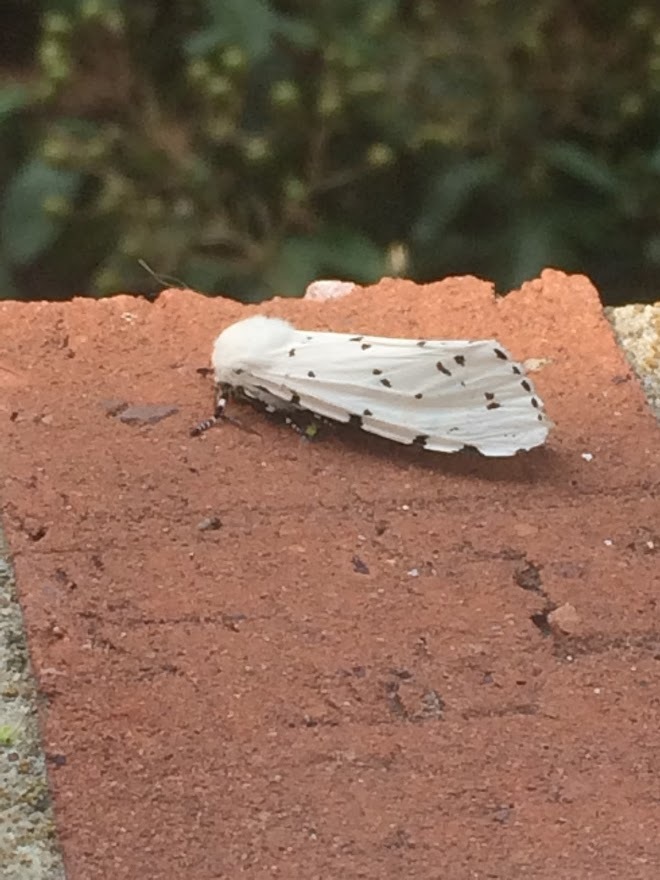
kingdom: Animalia
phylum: Arthropoda
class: Insecta
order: Lepidoptera
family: Erebidae
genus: Estigmene
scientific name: Estigmene acrea
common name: Salt marsh moth
